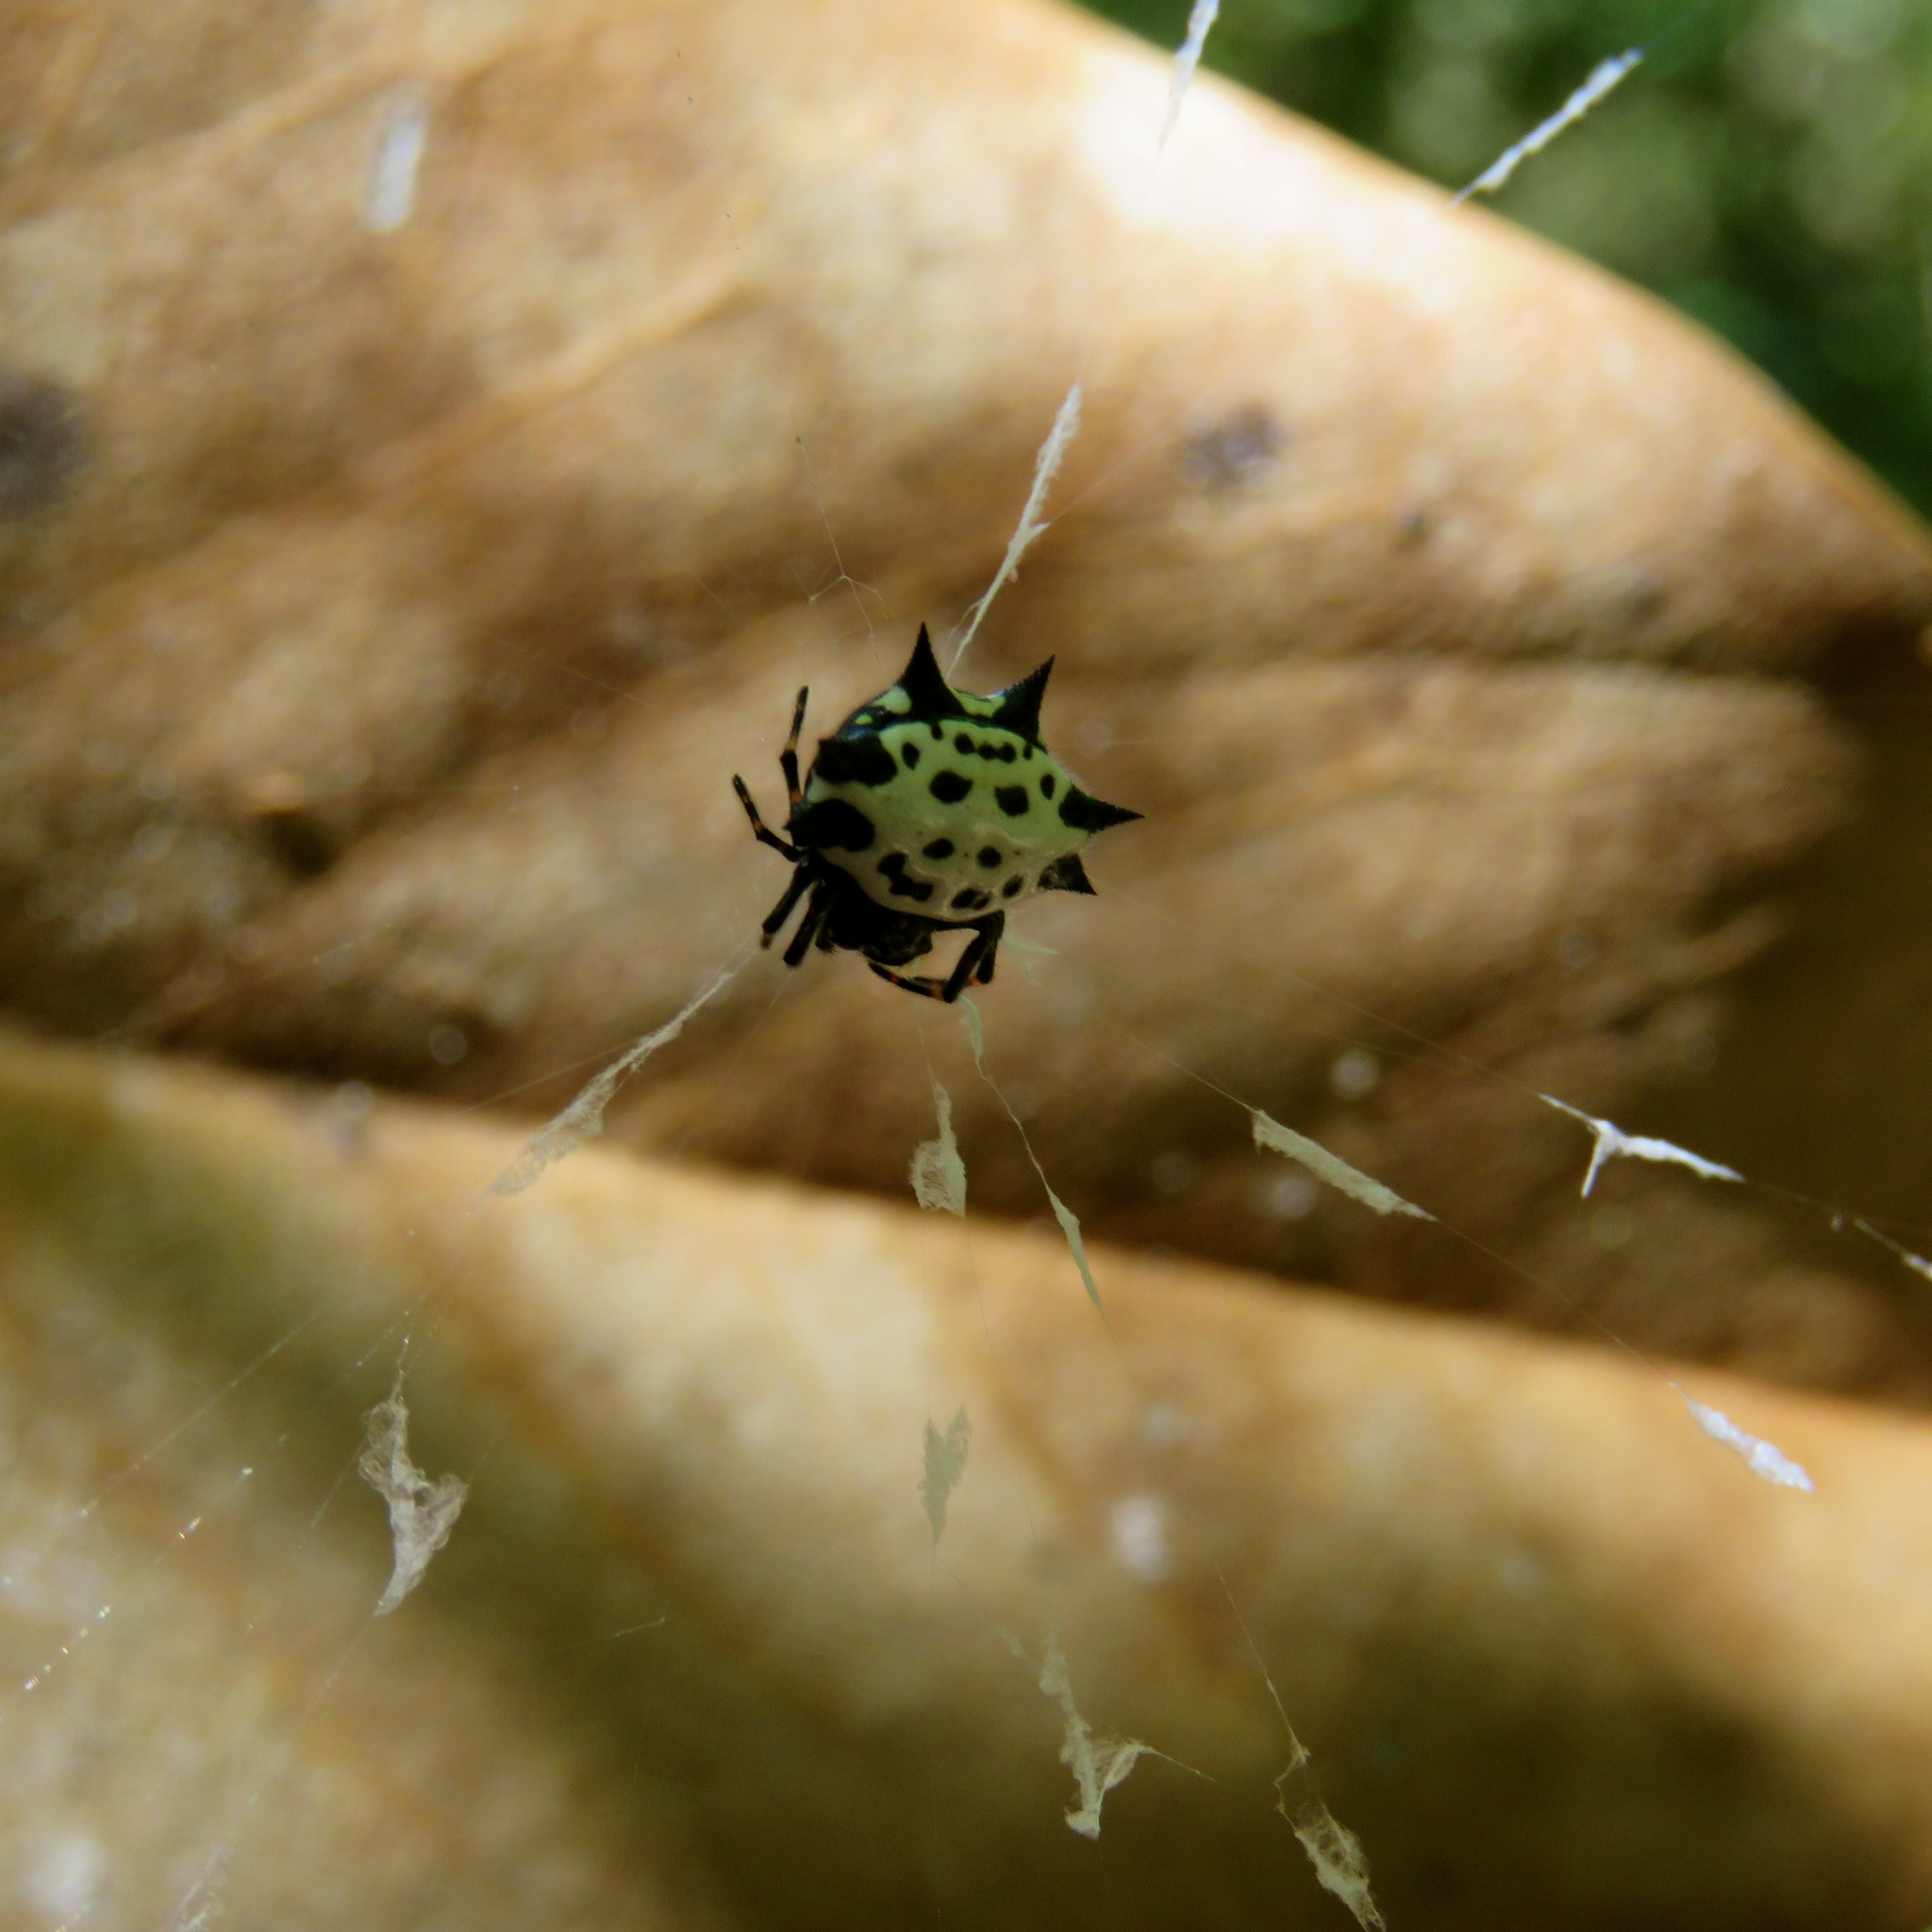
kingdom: Animalia
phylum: Arthropoda
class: Arachnida
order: Araneae
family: Araneidae
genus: Gasteracantha
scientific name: Gasteracantha cancriformis
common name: Orb weavers
